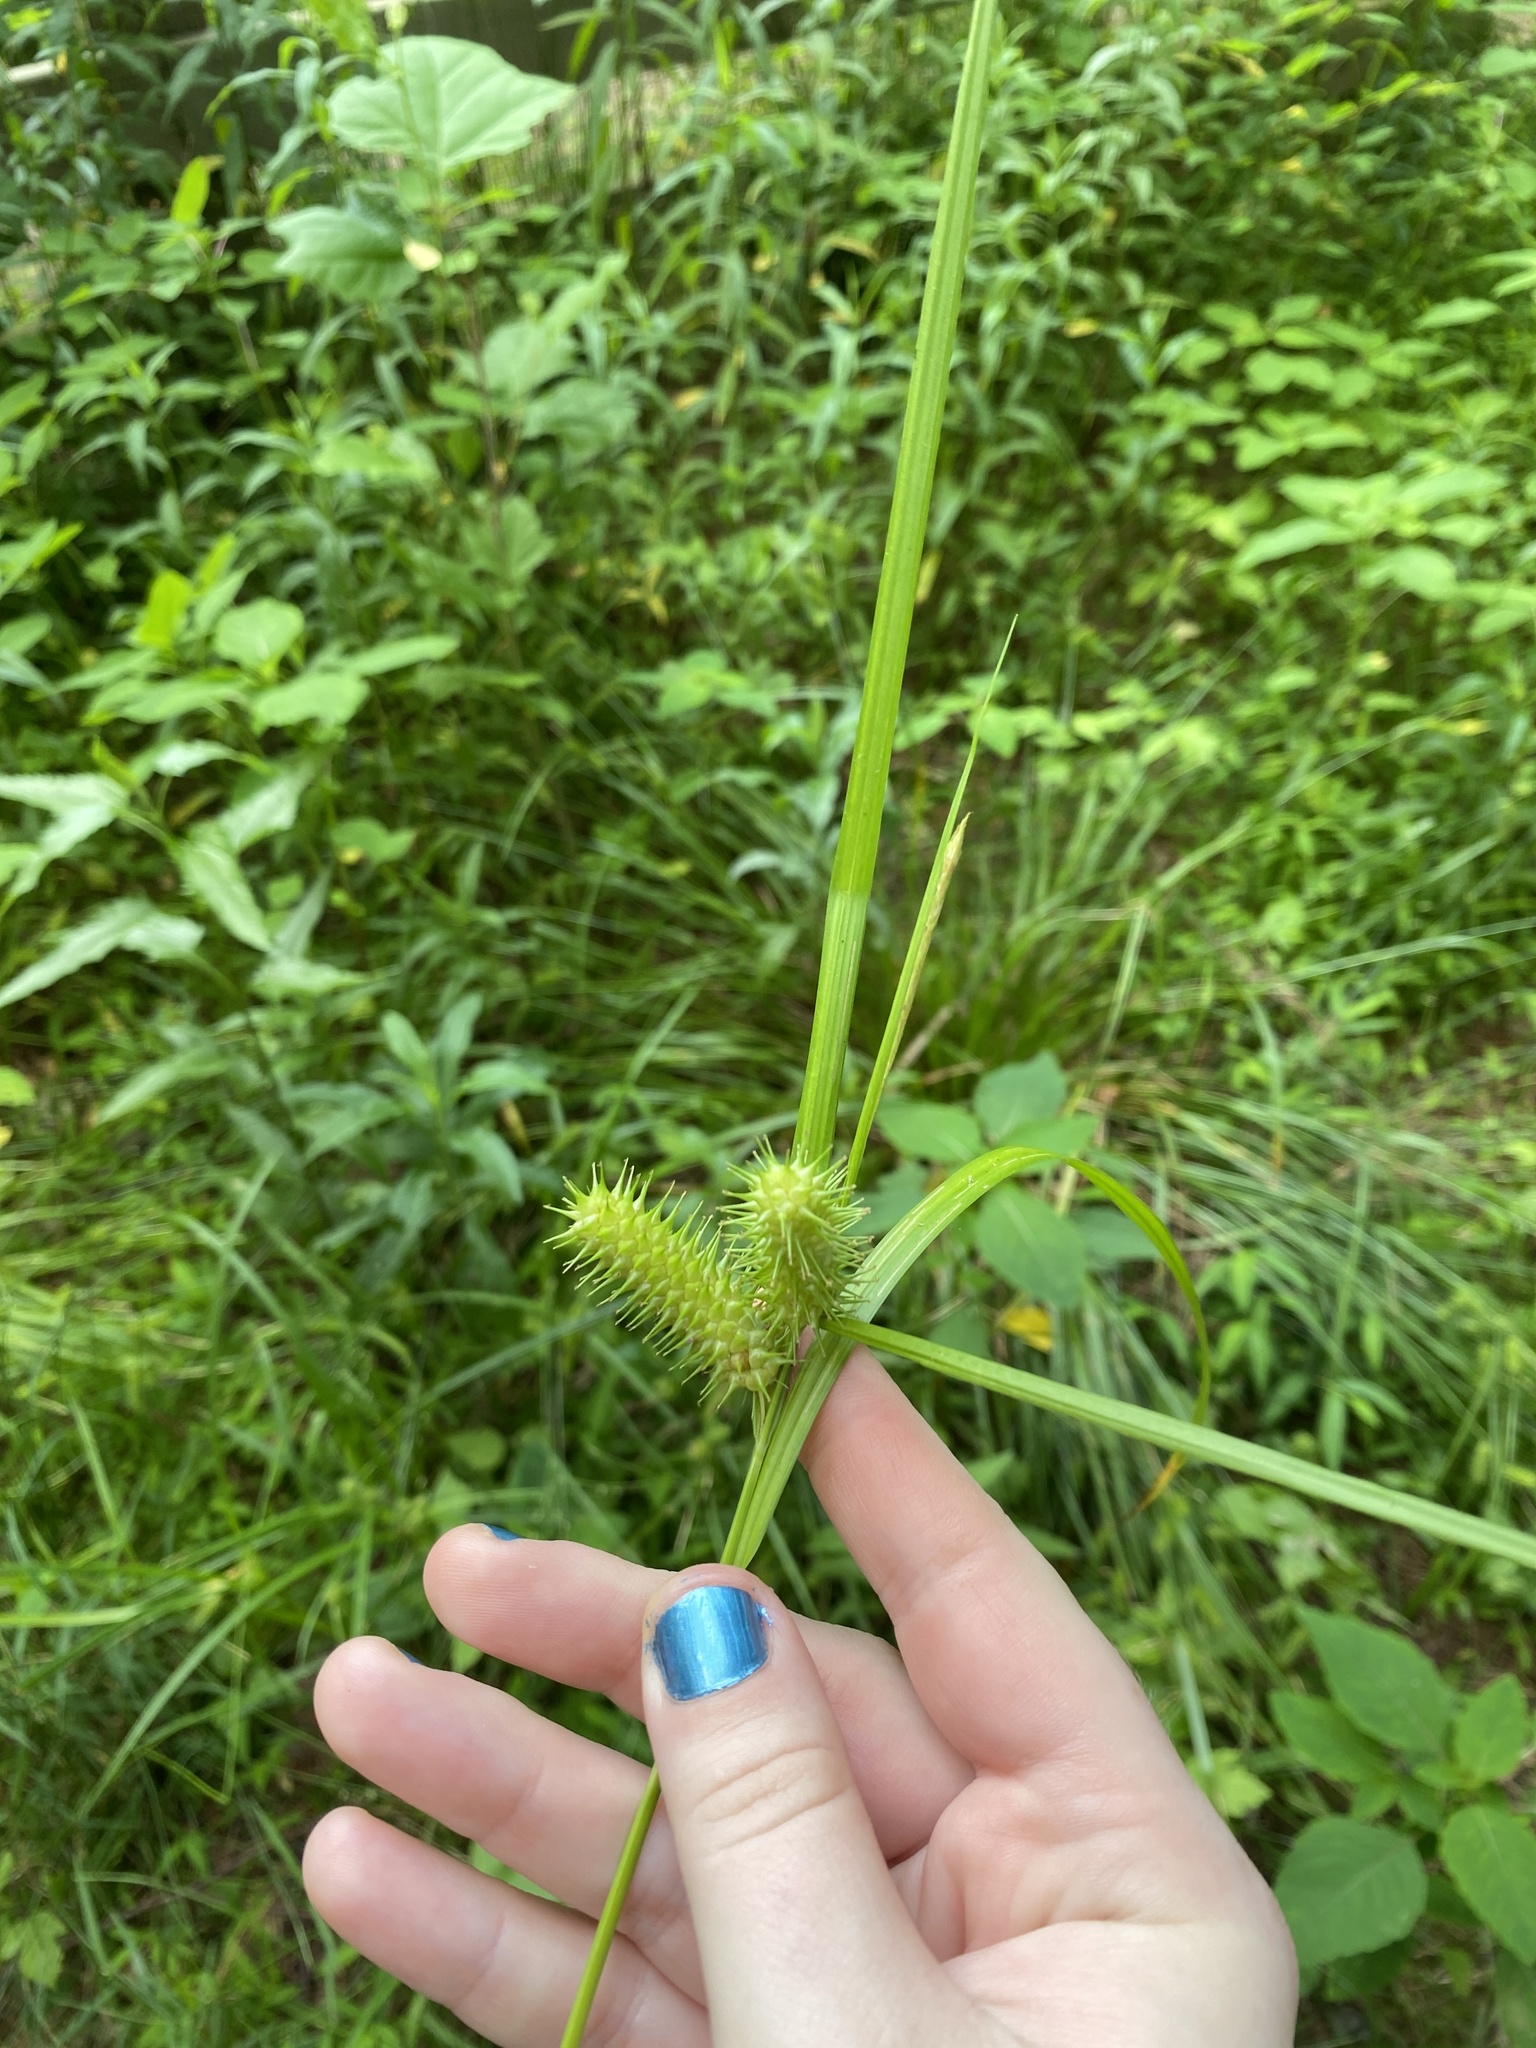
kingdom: Plantae
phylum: Tracheophyta
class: Liliopsida
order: Poales
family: Cyperaceae
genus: Carex
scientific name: Carex lurida
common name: Sallow sedge
